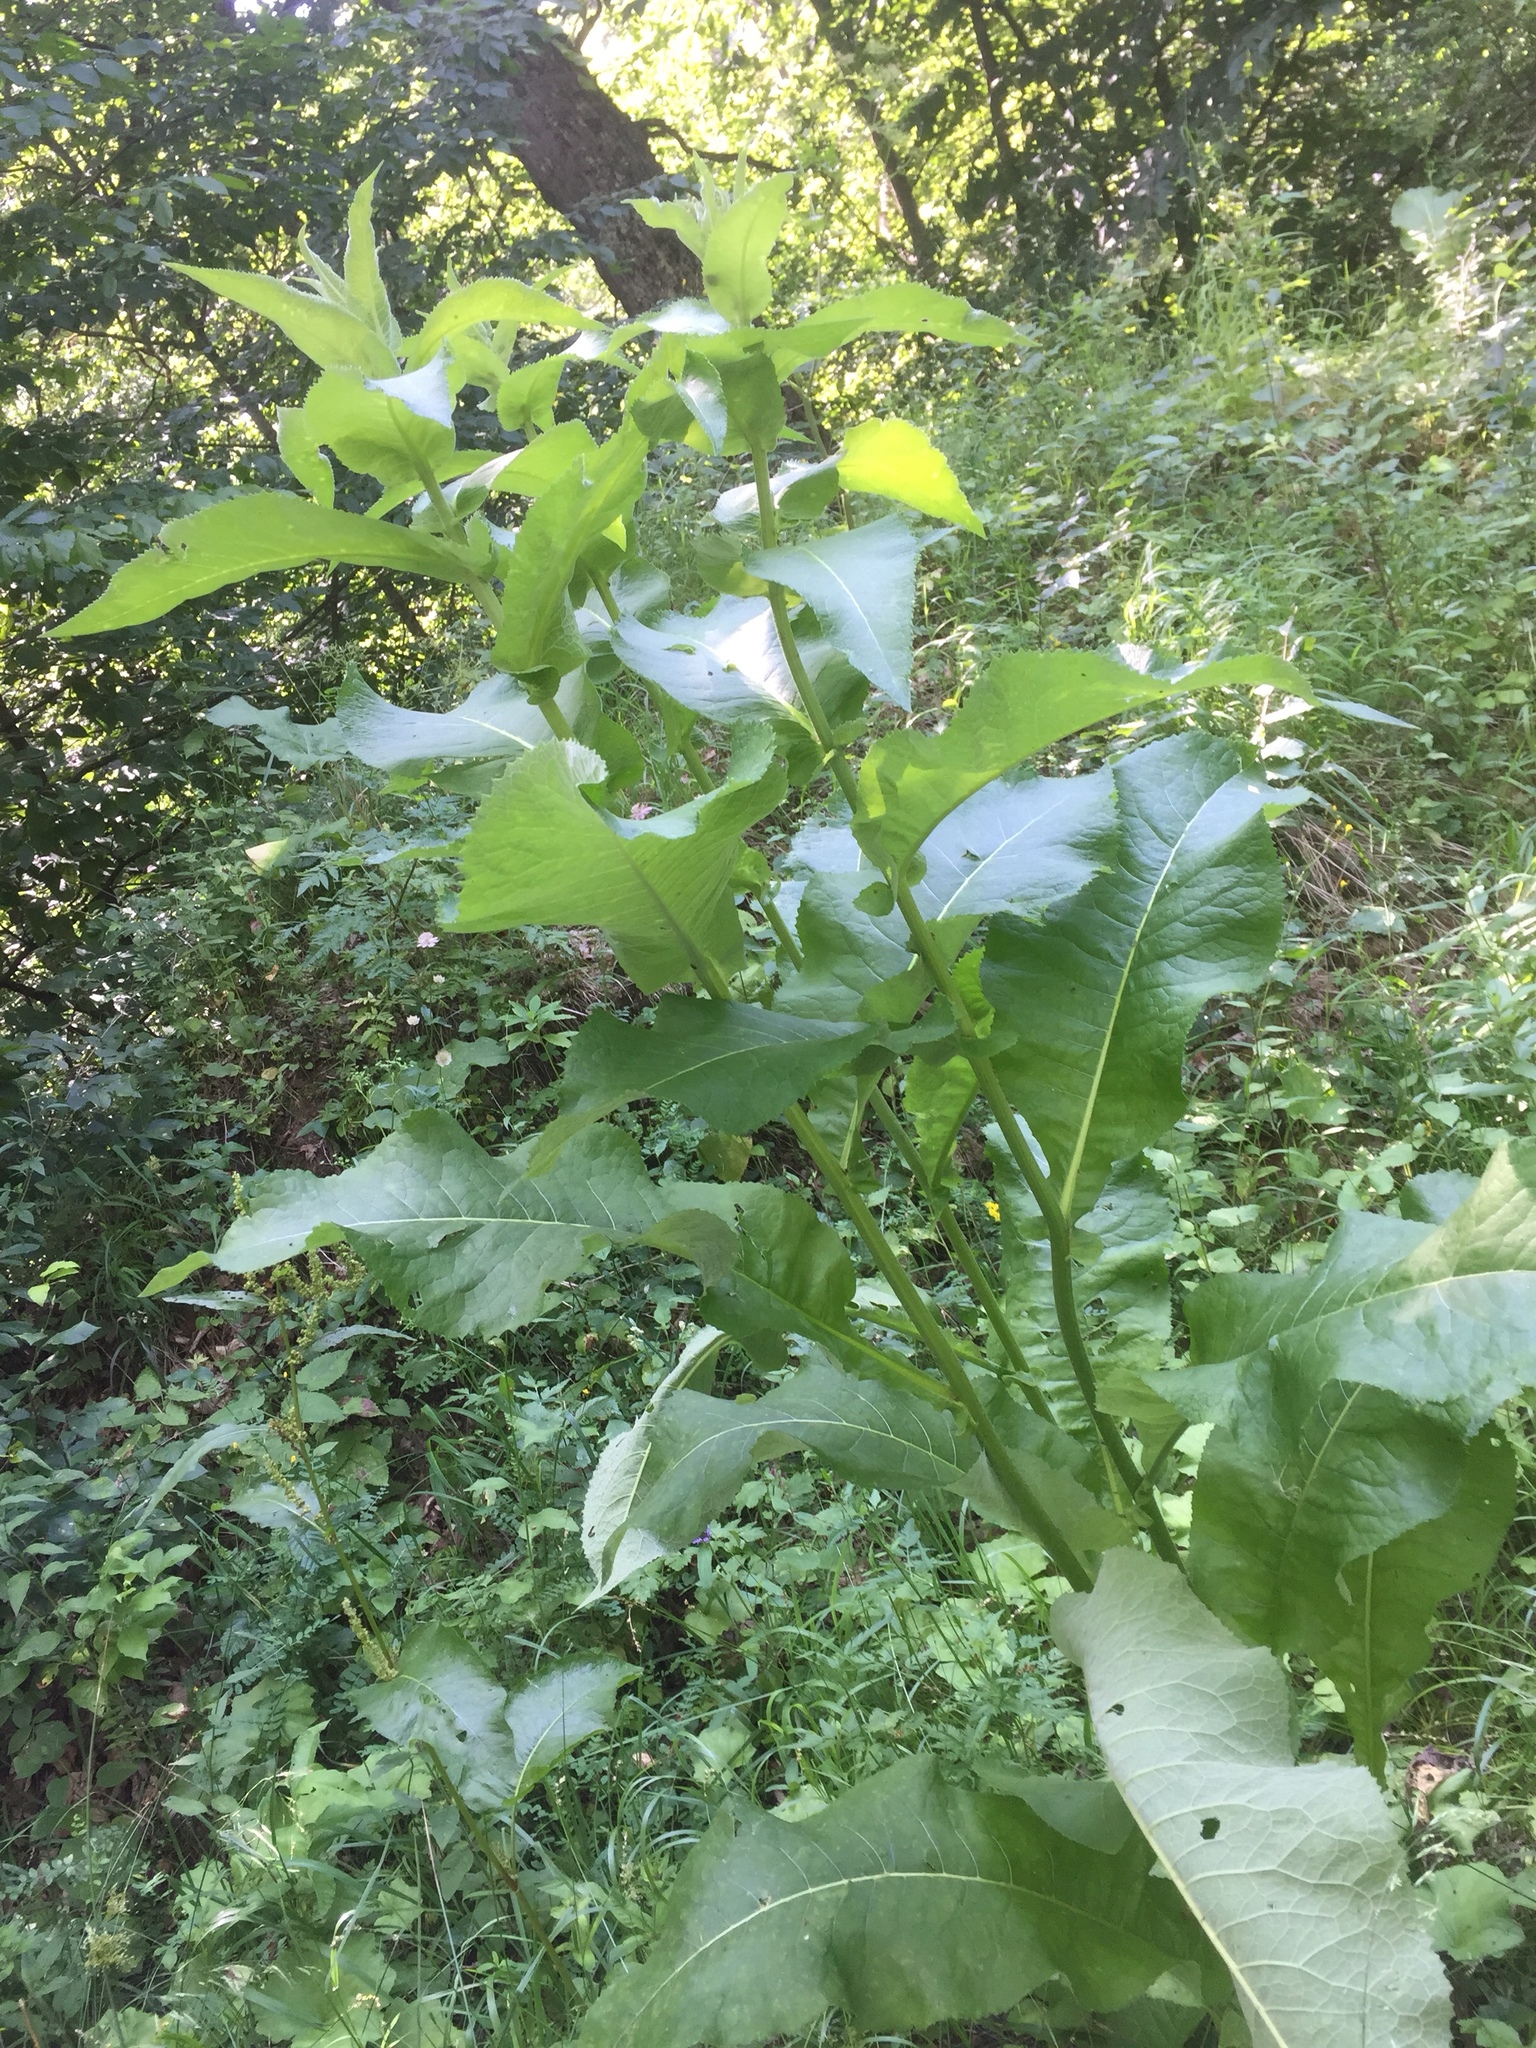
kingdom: Plantae
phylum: Tracheophyta
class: Magnoliopsida
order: Asterales
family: Asteraceae
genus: Inula
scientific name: Inula helenium
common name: Elecampane
